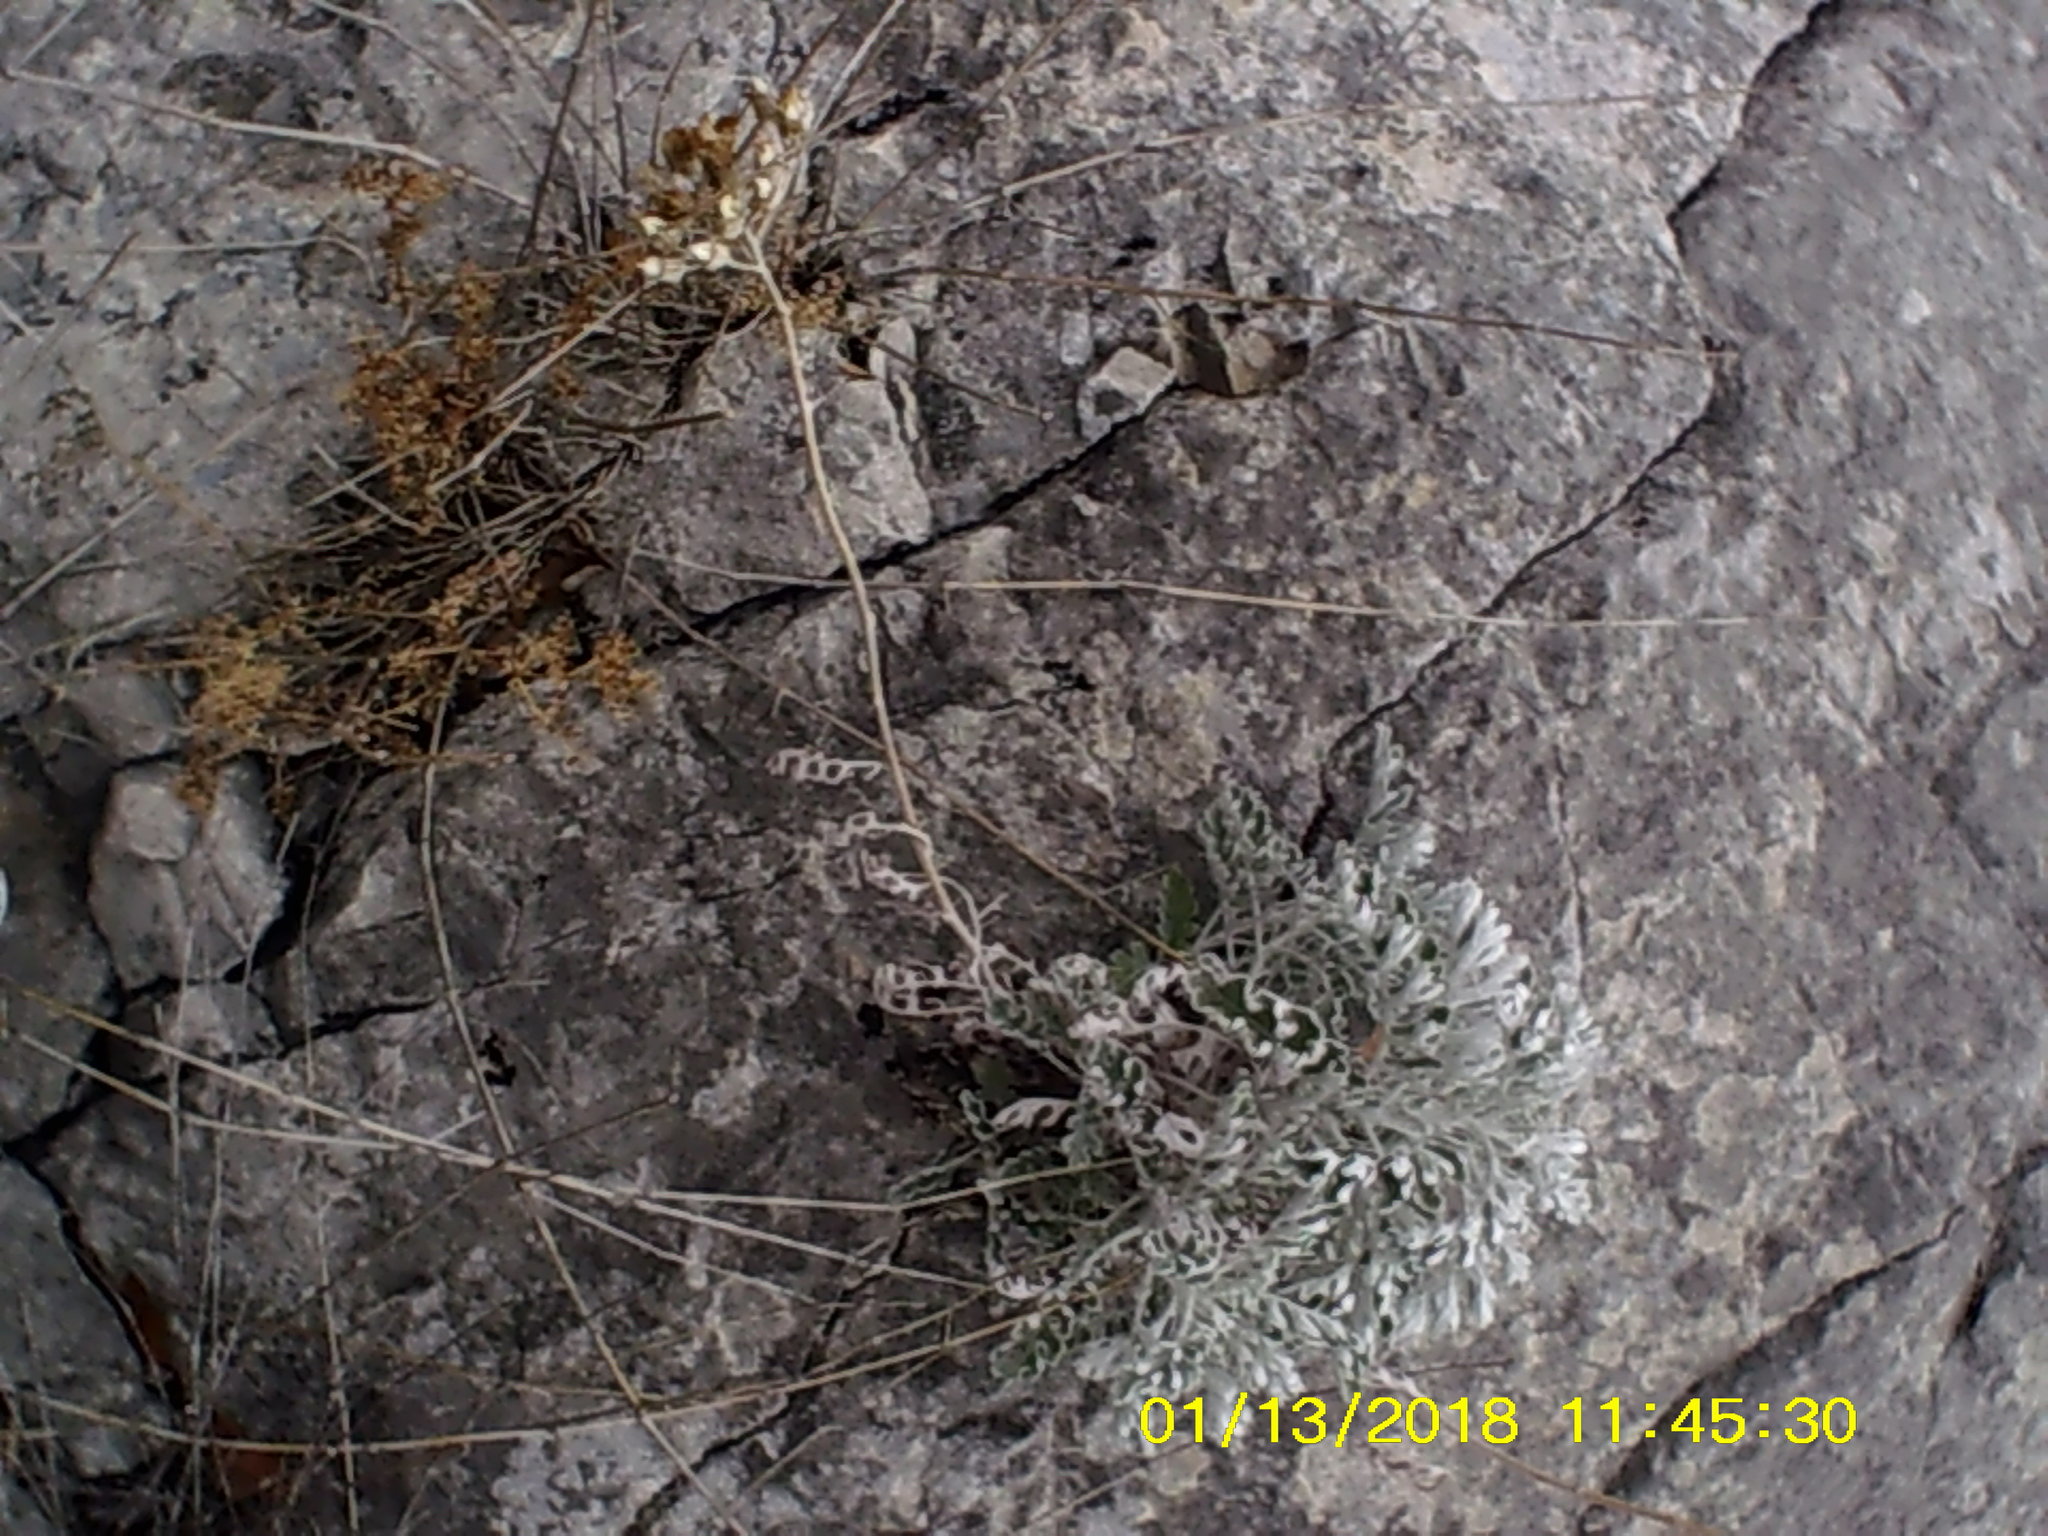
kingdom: Plantae
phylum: Tracheophyta
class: Magnoliopsida
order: Asterales
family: Asteraceae
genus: Jacobaea
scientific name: Jacobaea maritima
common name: Silver ragwort
